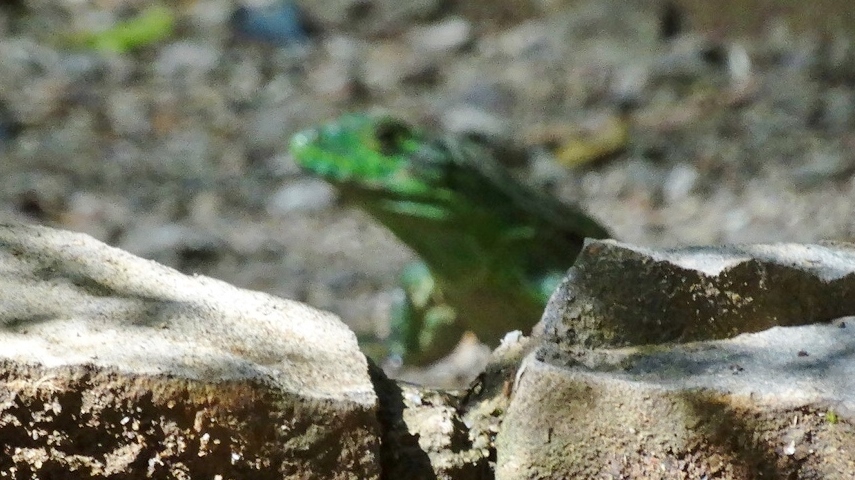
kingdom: Animalia
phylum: Chordata
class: Squamata
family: Iguanidae
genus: Ctenosaura
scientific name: Ctenosaura similis
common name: Black spiny-tailed iguana
